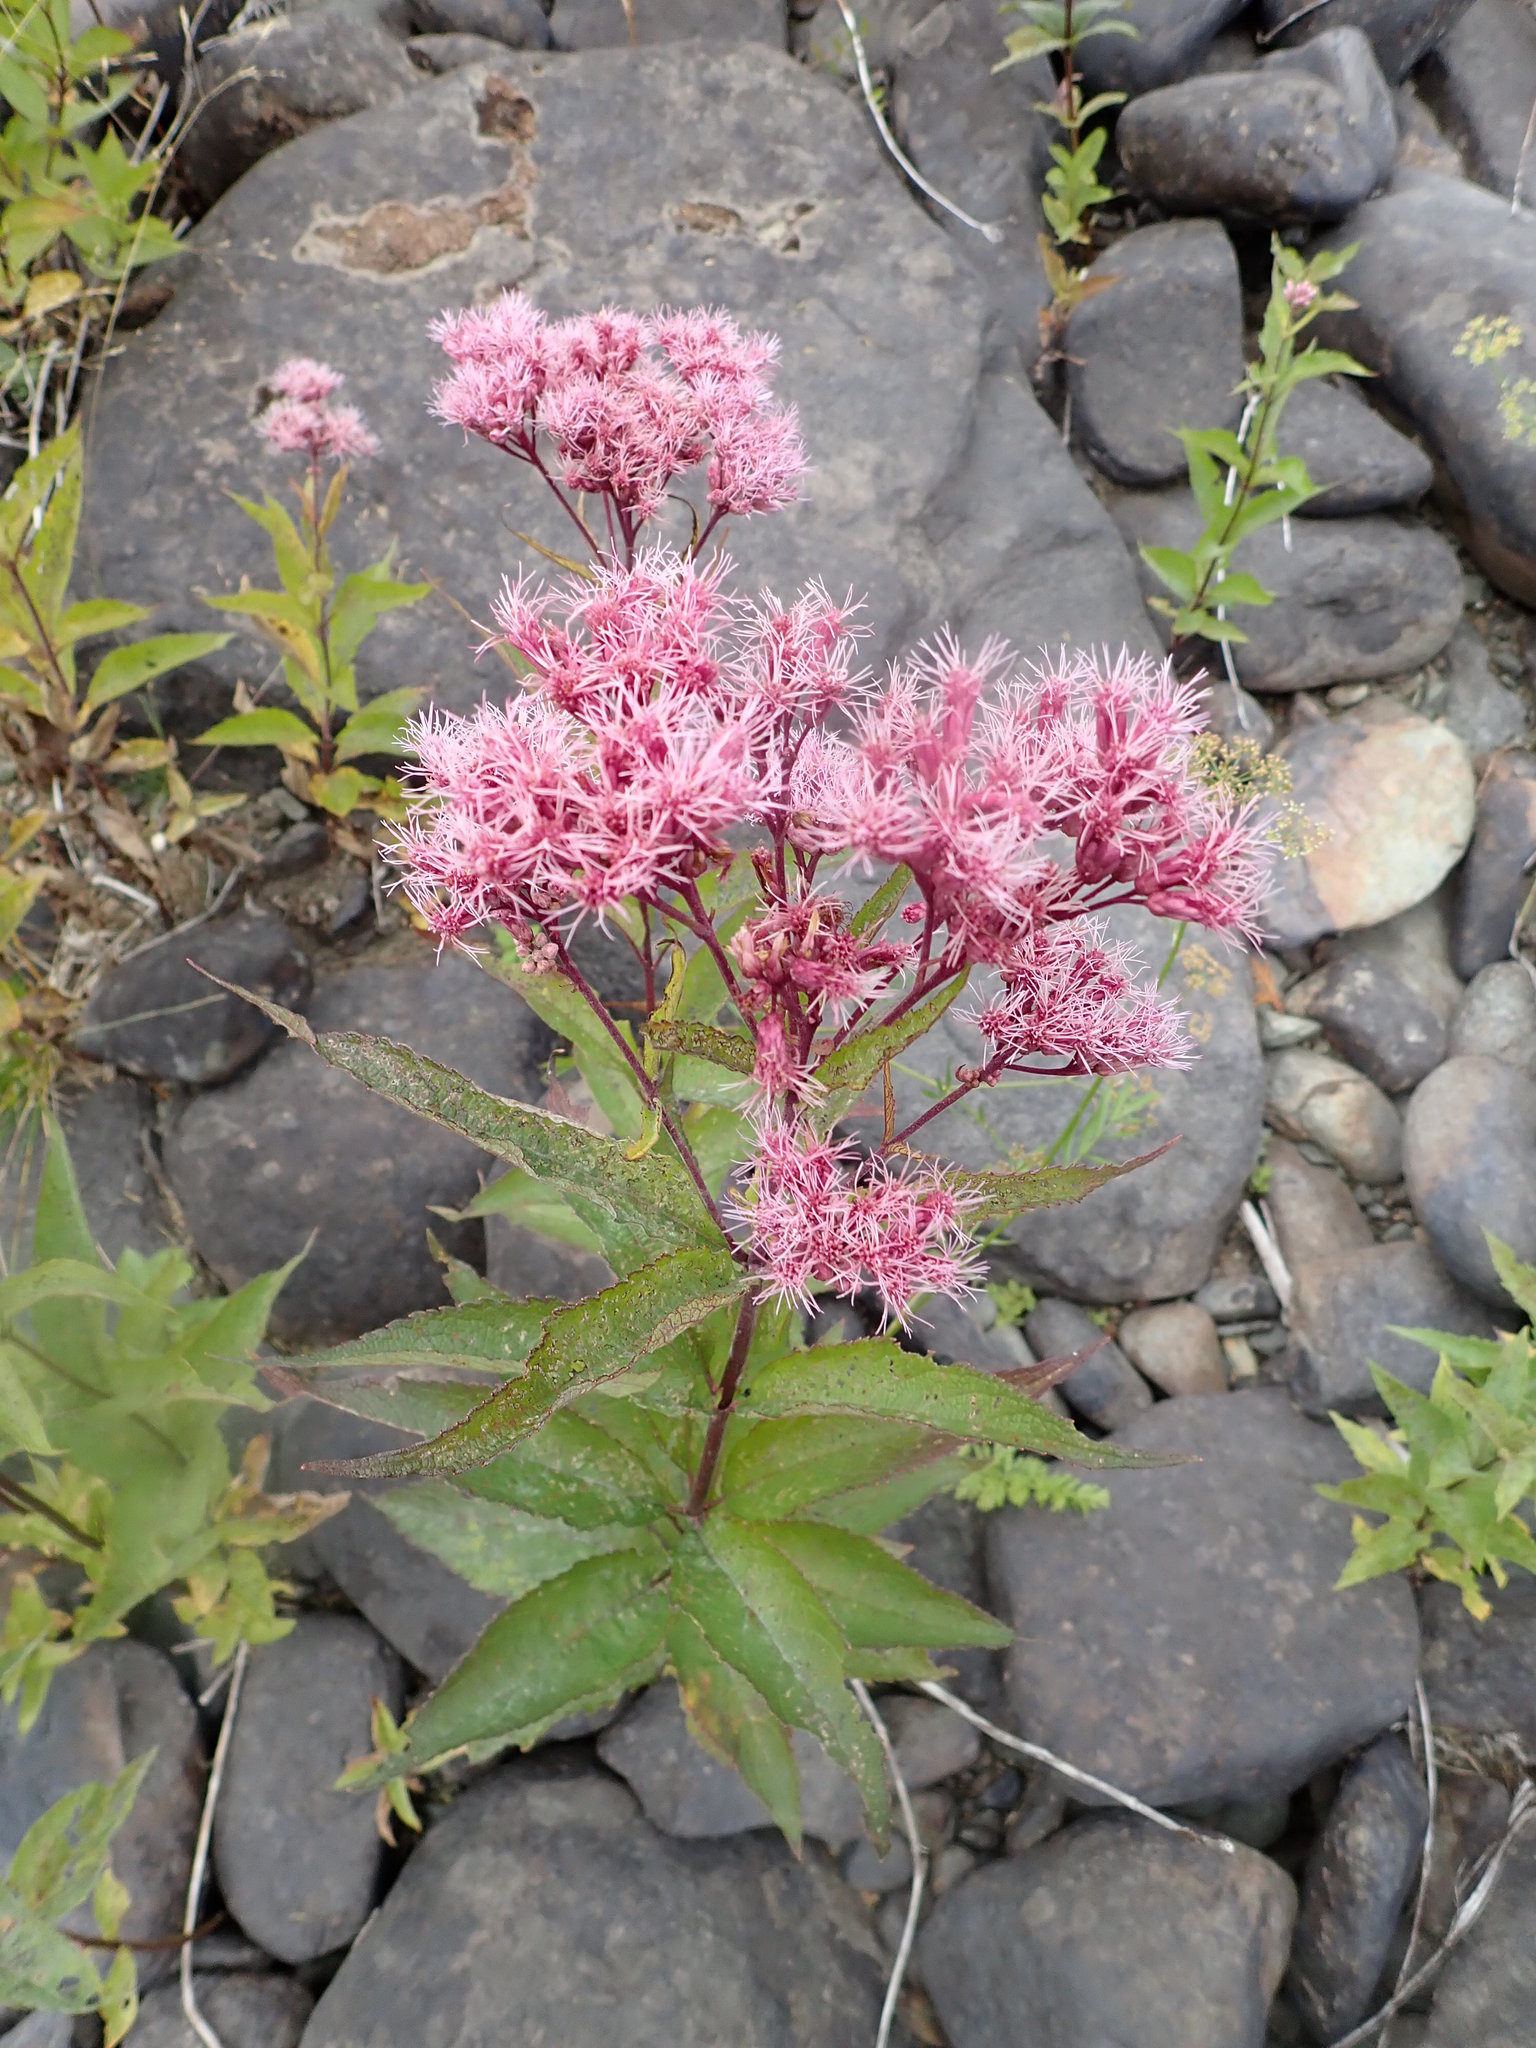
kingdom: Plantae
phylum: Tracheophyta
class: Magnoliopsida
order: Asterales
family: Asteraceae
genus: Eutrochium
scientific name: Eutrochium maculatum
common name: Spotted joe pye weed
